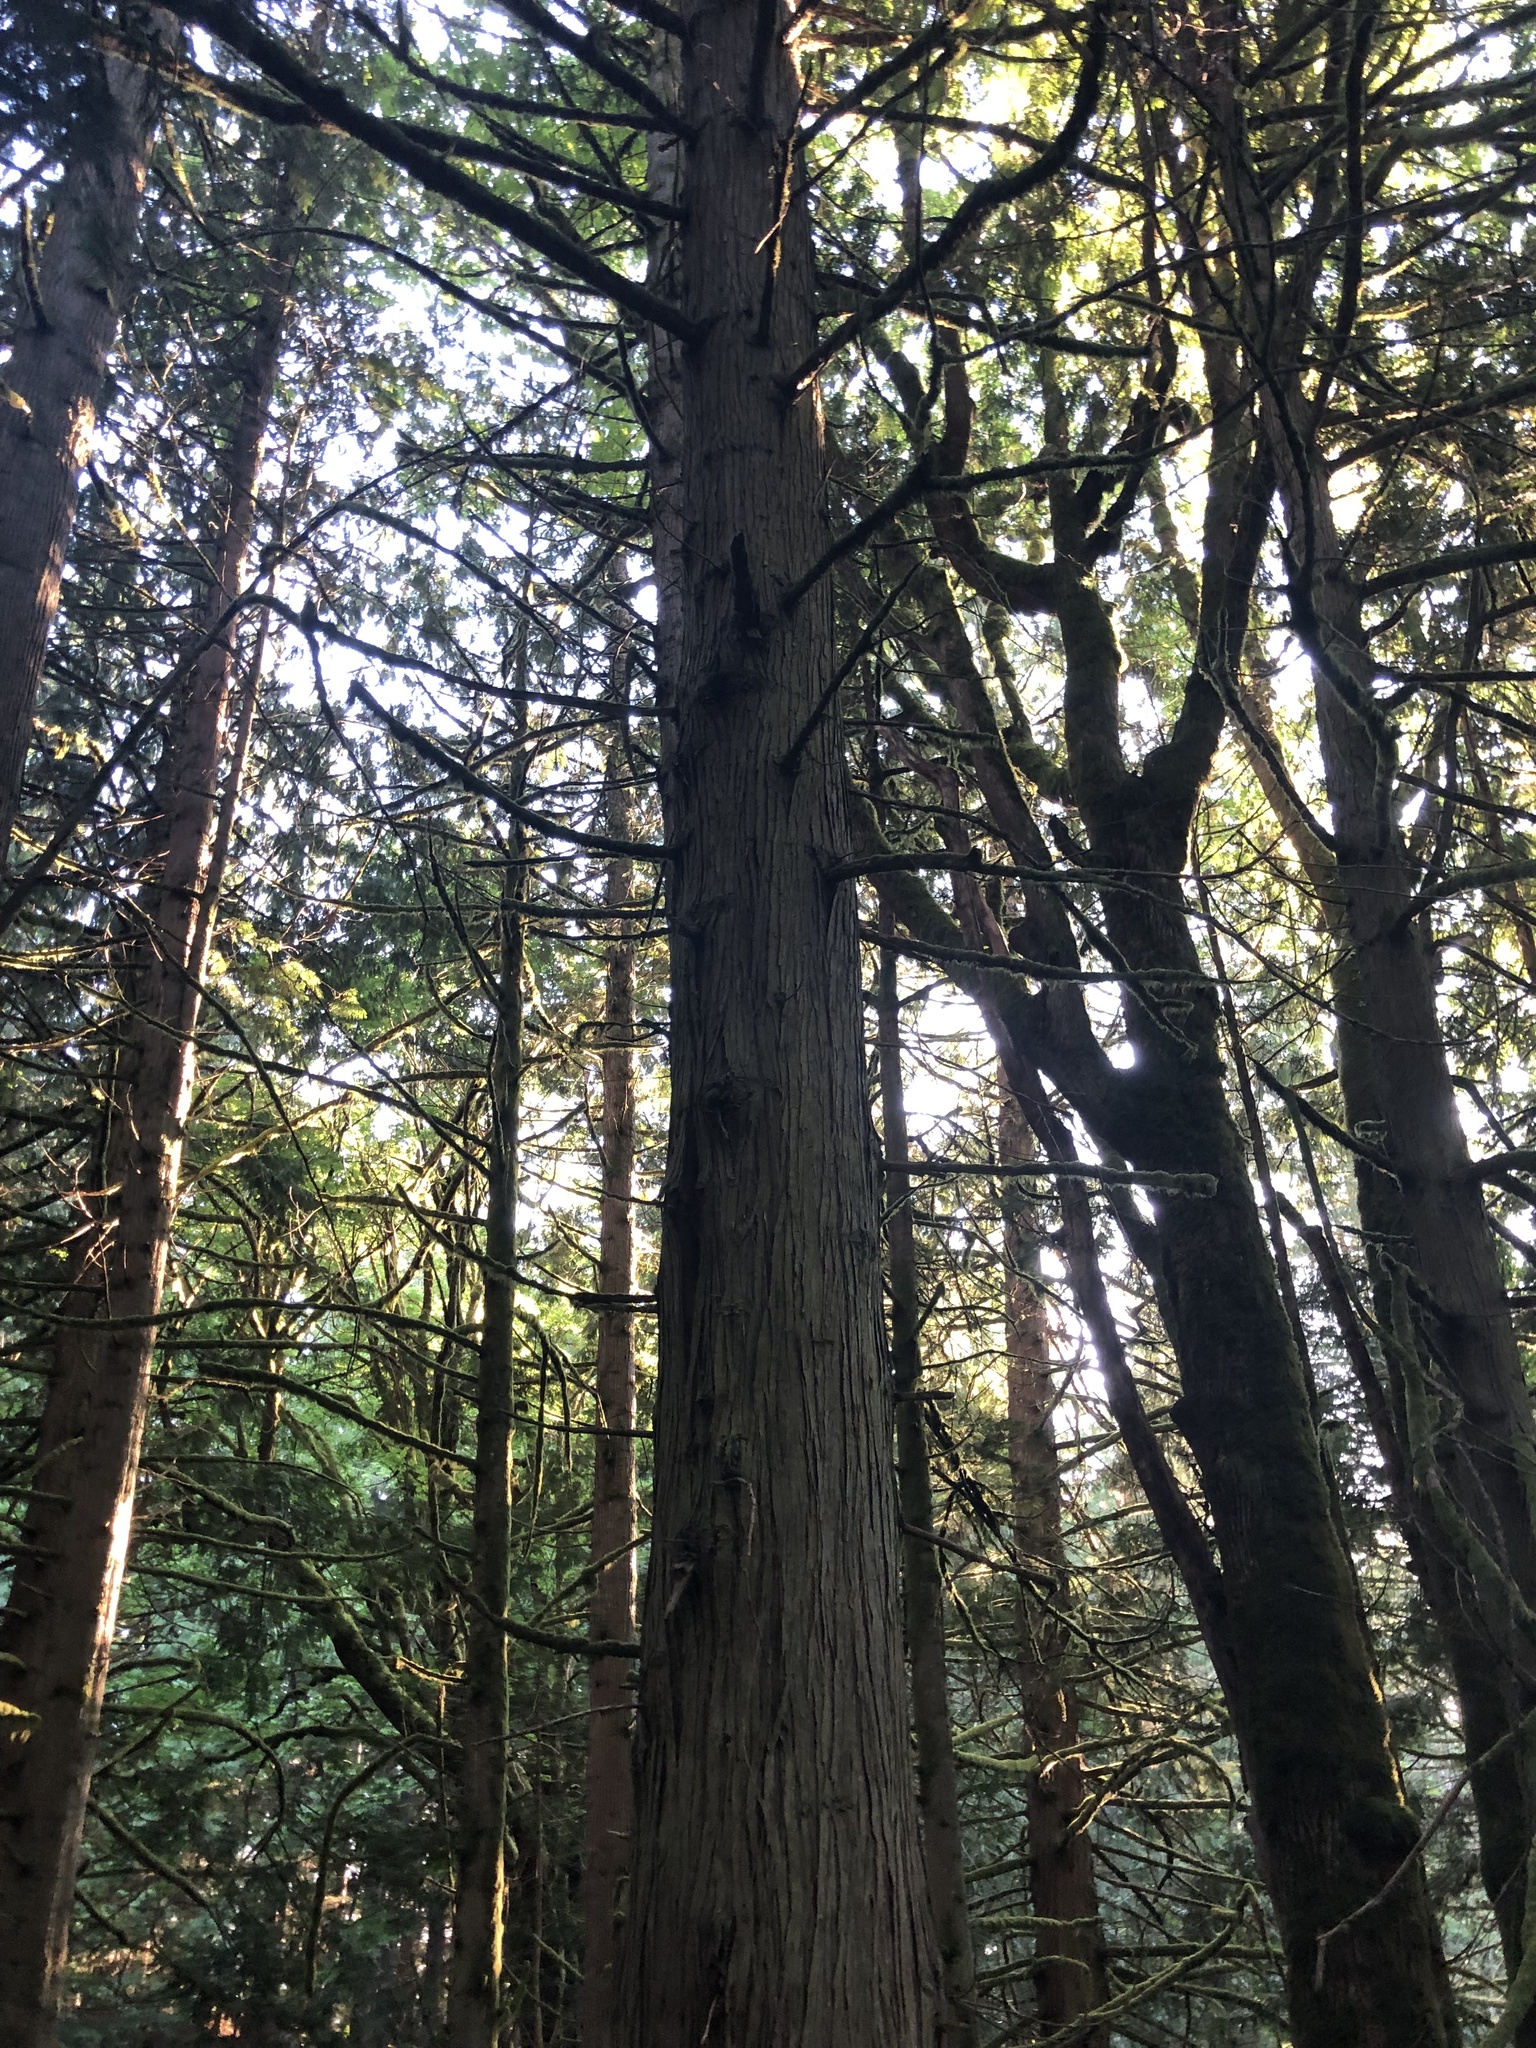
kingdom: Plantae
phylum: Tracheophyta
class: Pinopsida
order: Pinales
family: Cupressaceae
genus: Thuja
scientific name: Thuja plicata
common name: Western red-cedar
